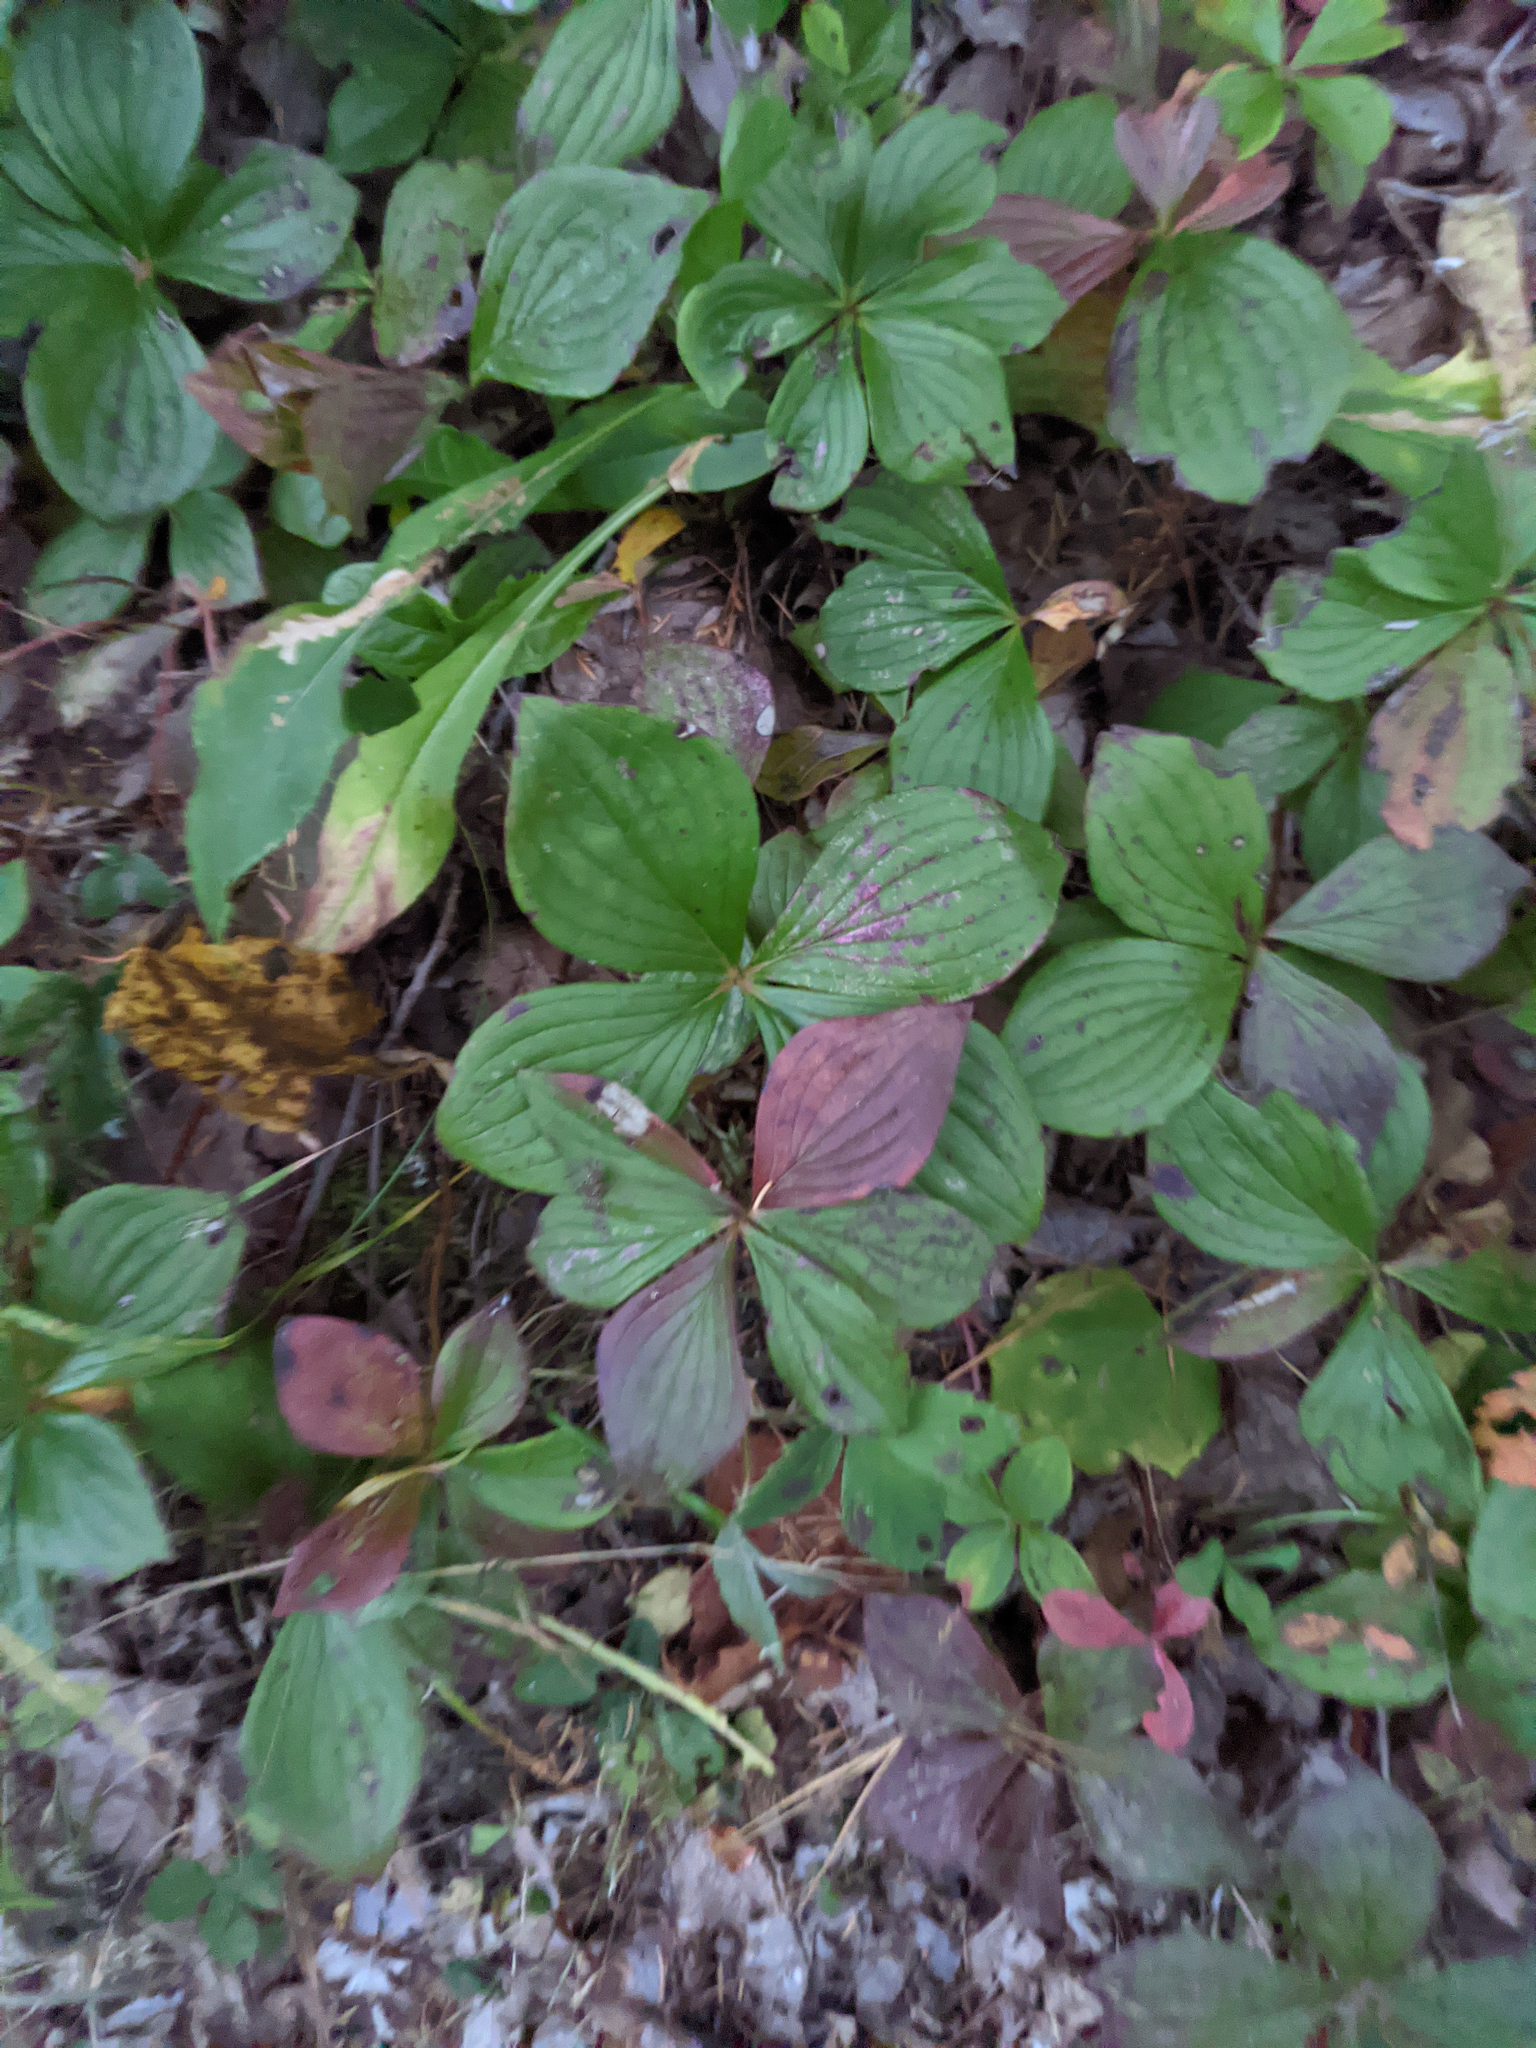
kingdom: Plantae
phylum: Tracheophyta
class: Magnoliopsida
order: Cornales
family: Cornaceae
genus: Cornus
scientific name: Cornus canadensis
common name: Creeping dogwood
